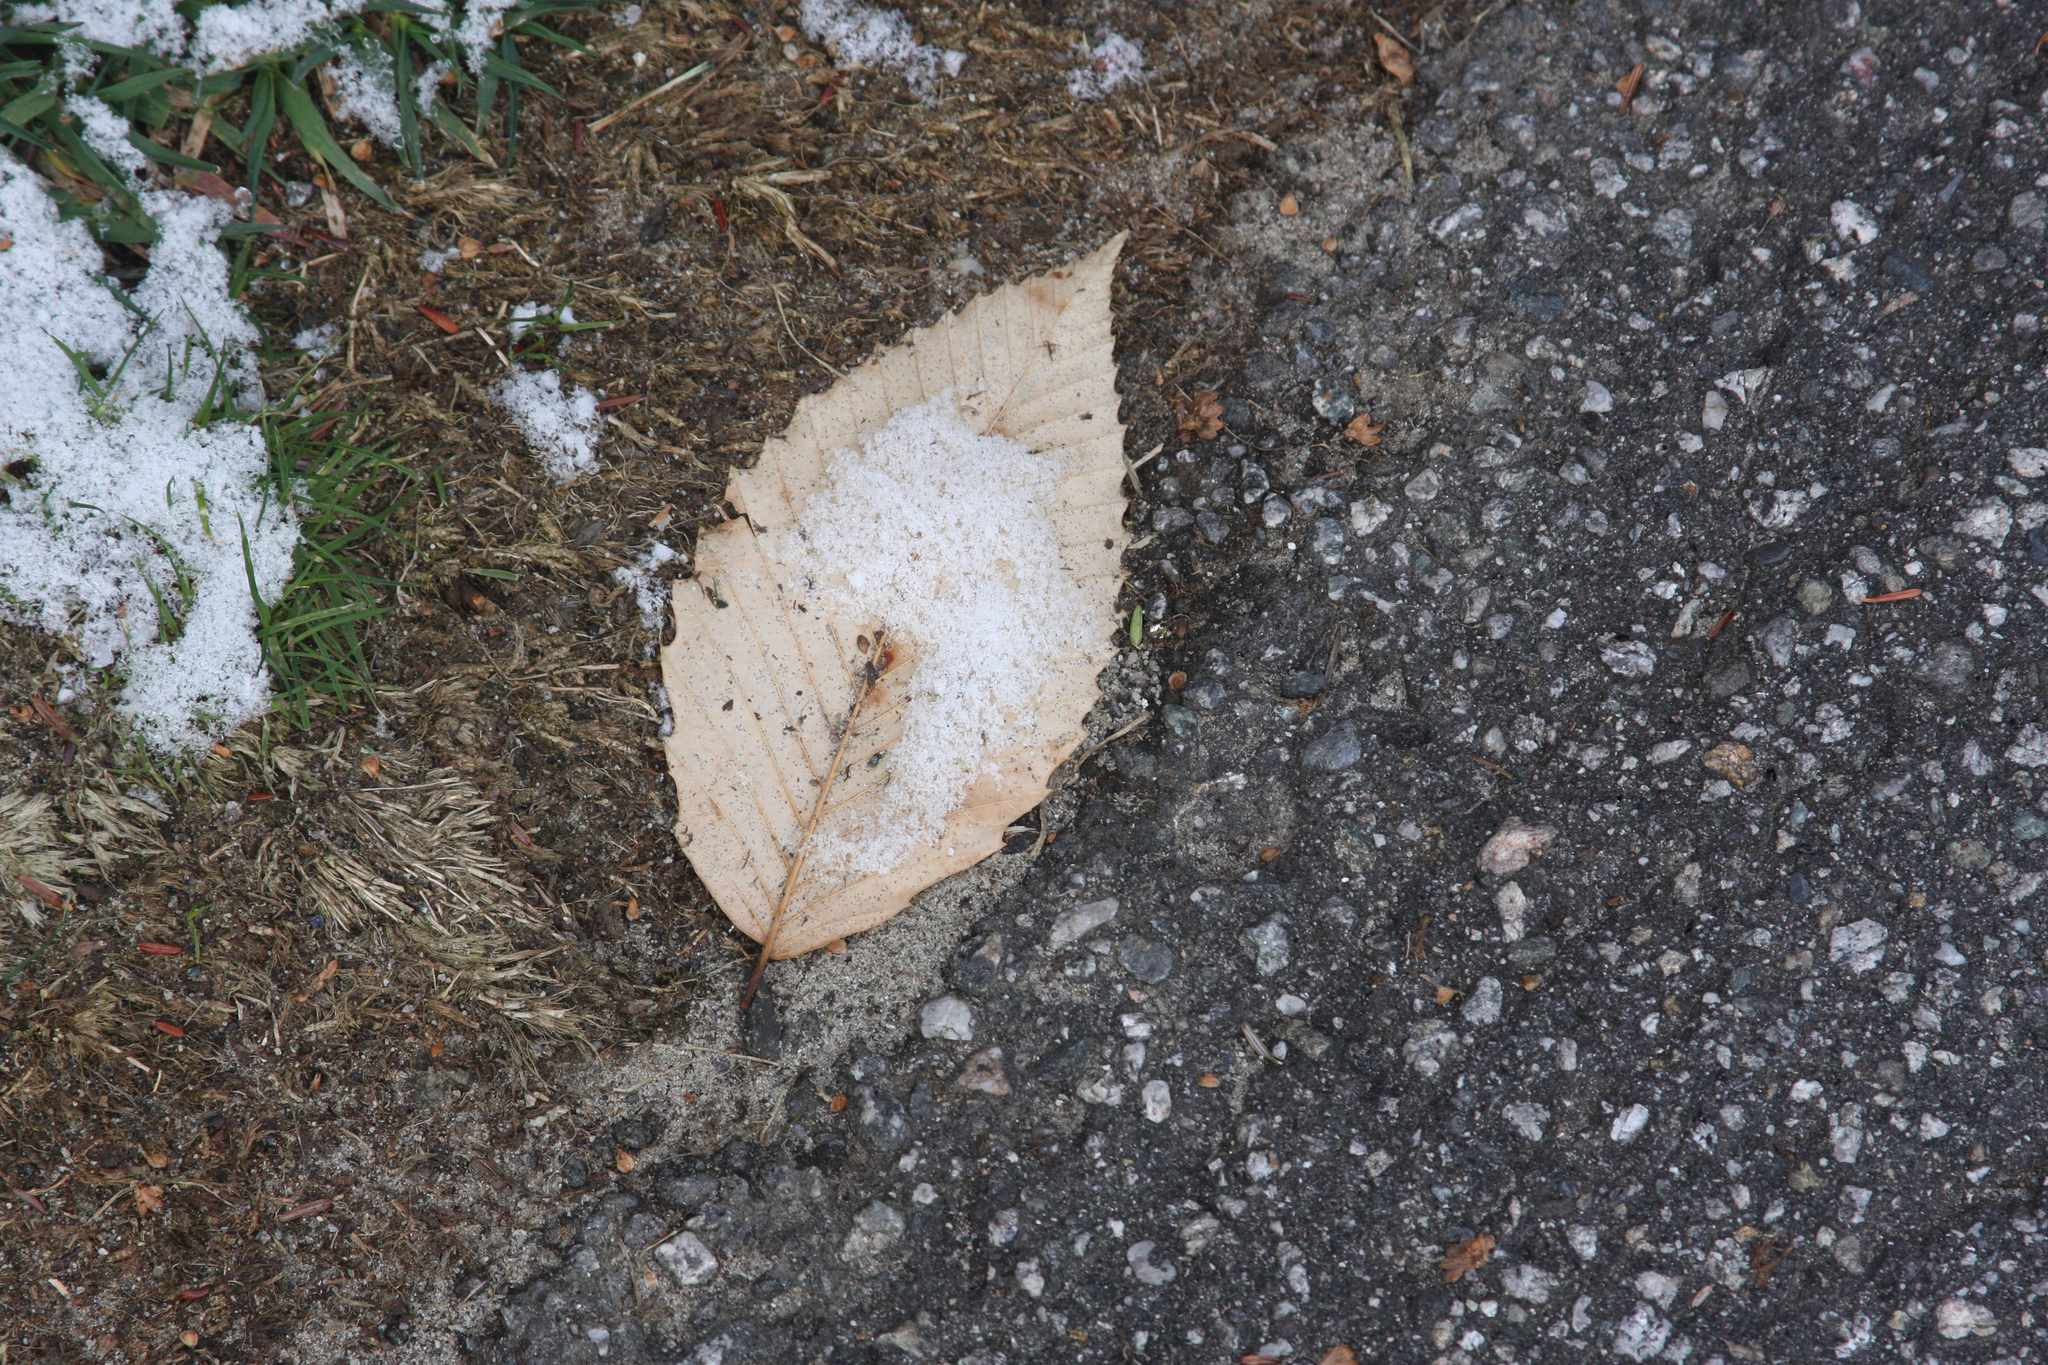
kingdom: Plantae
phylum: Tracheophyta
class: Magnoliopsida
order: Fagales
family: Fagaceae
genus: Fagus
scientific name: Fagus grandifolia
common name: American beech
